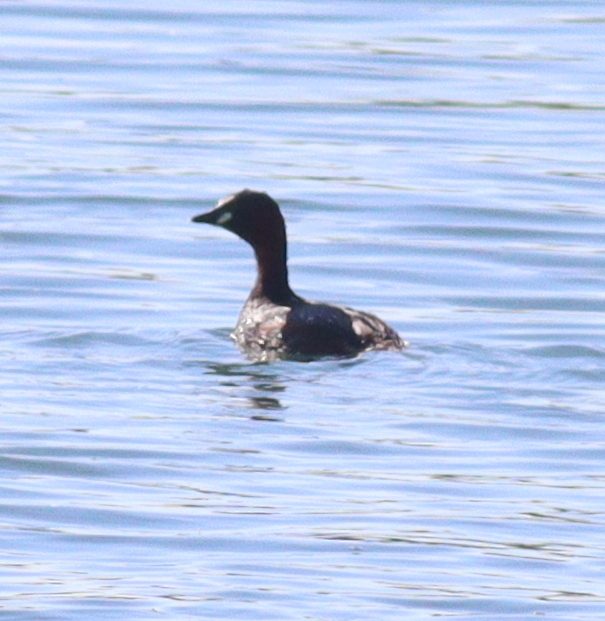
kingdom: Animalia
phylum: Chordata
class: Aves
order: Podicipediformes
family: Podicipedidae
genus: Tachybaptus
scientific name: Tachybaptus ruficollis
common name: Little grebe
